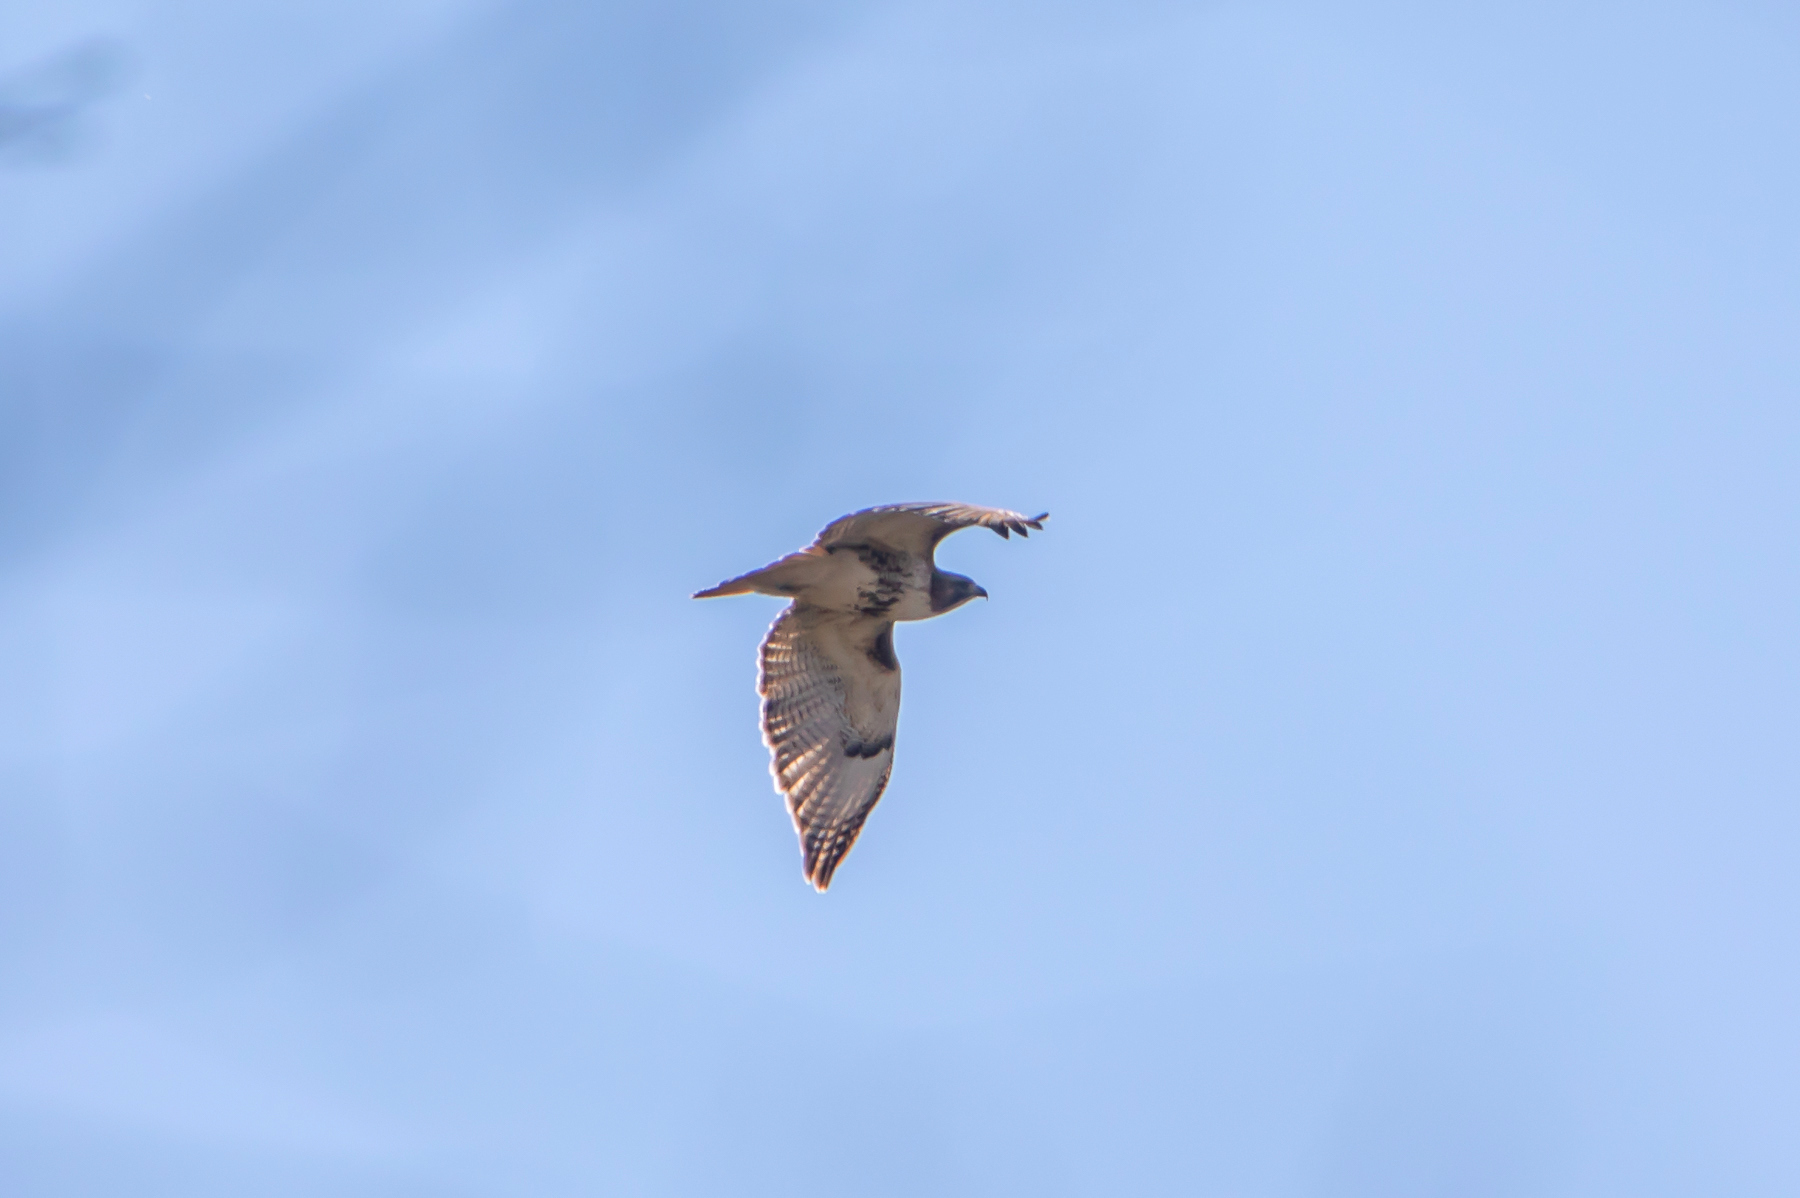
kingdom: Animalia
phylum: Chordata
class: Aves
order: Accipitriformes
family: Accipitridae
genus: Buteo
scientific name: Buteo jamaicensis
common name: Red-tailed hawk
